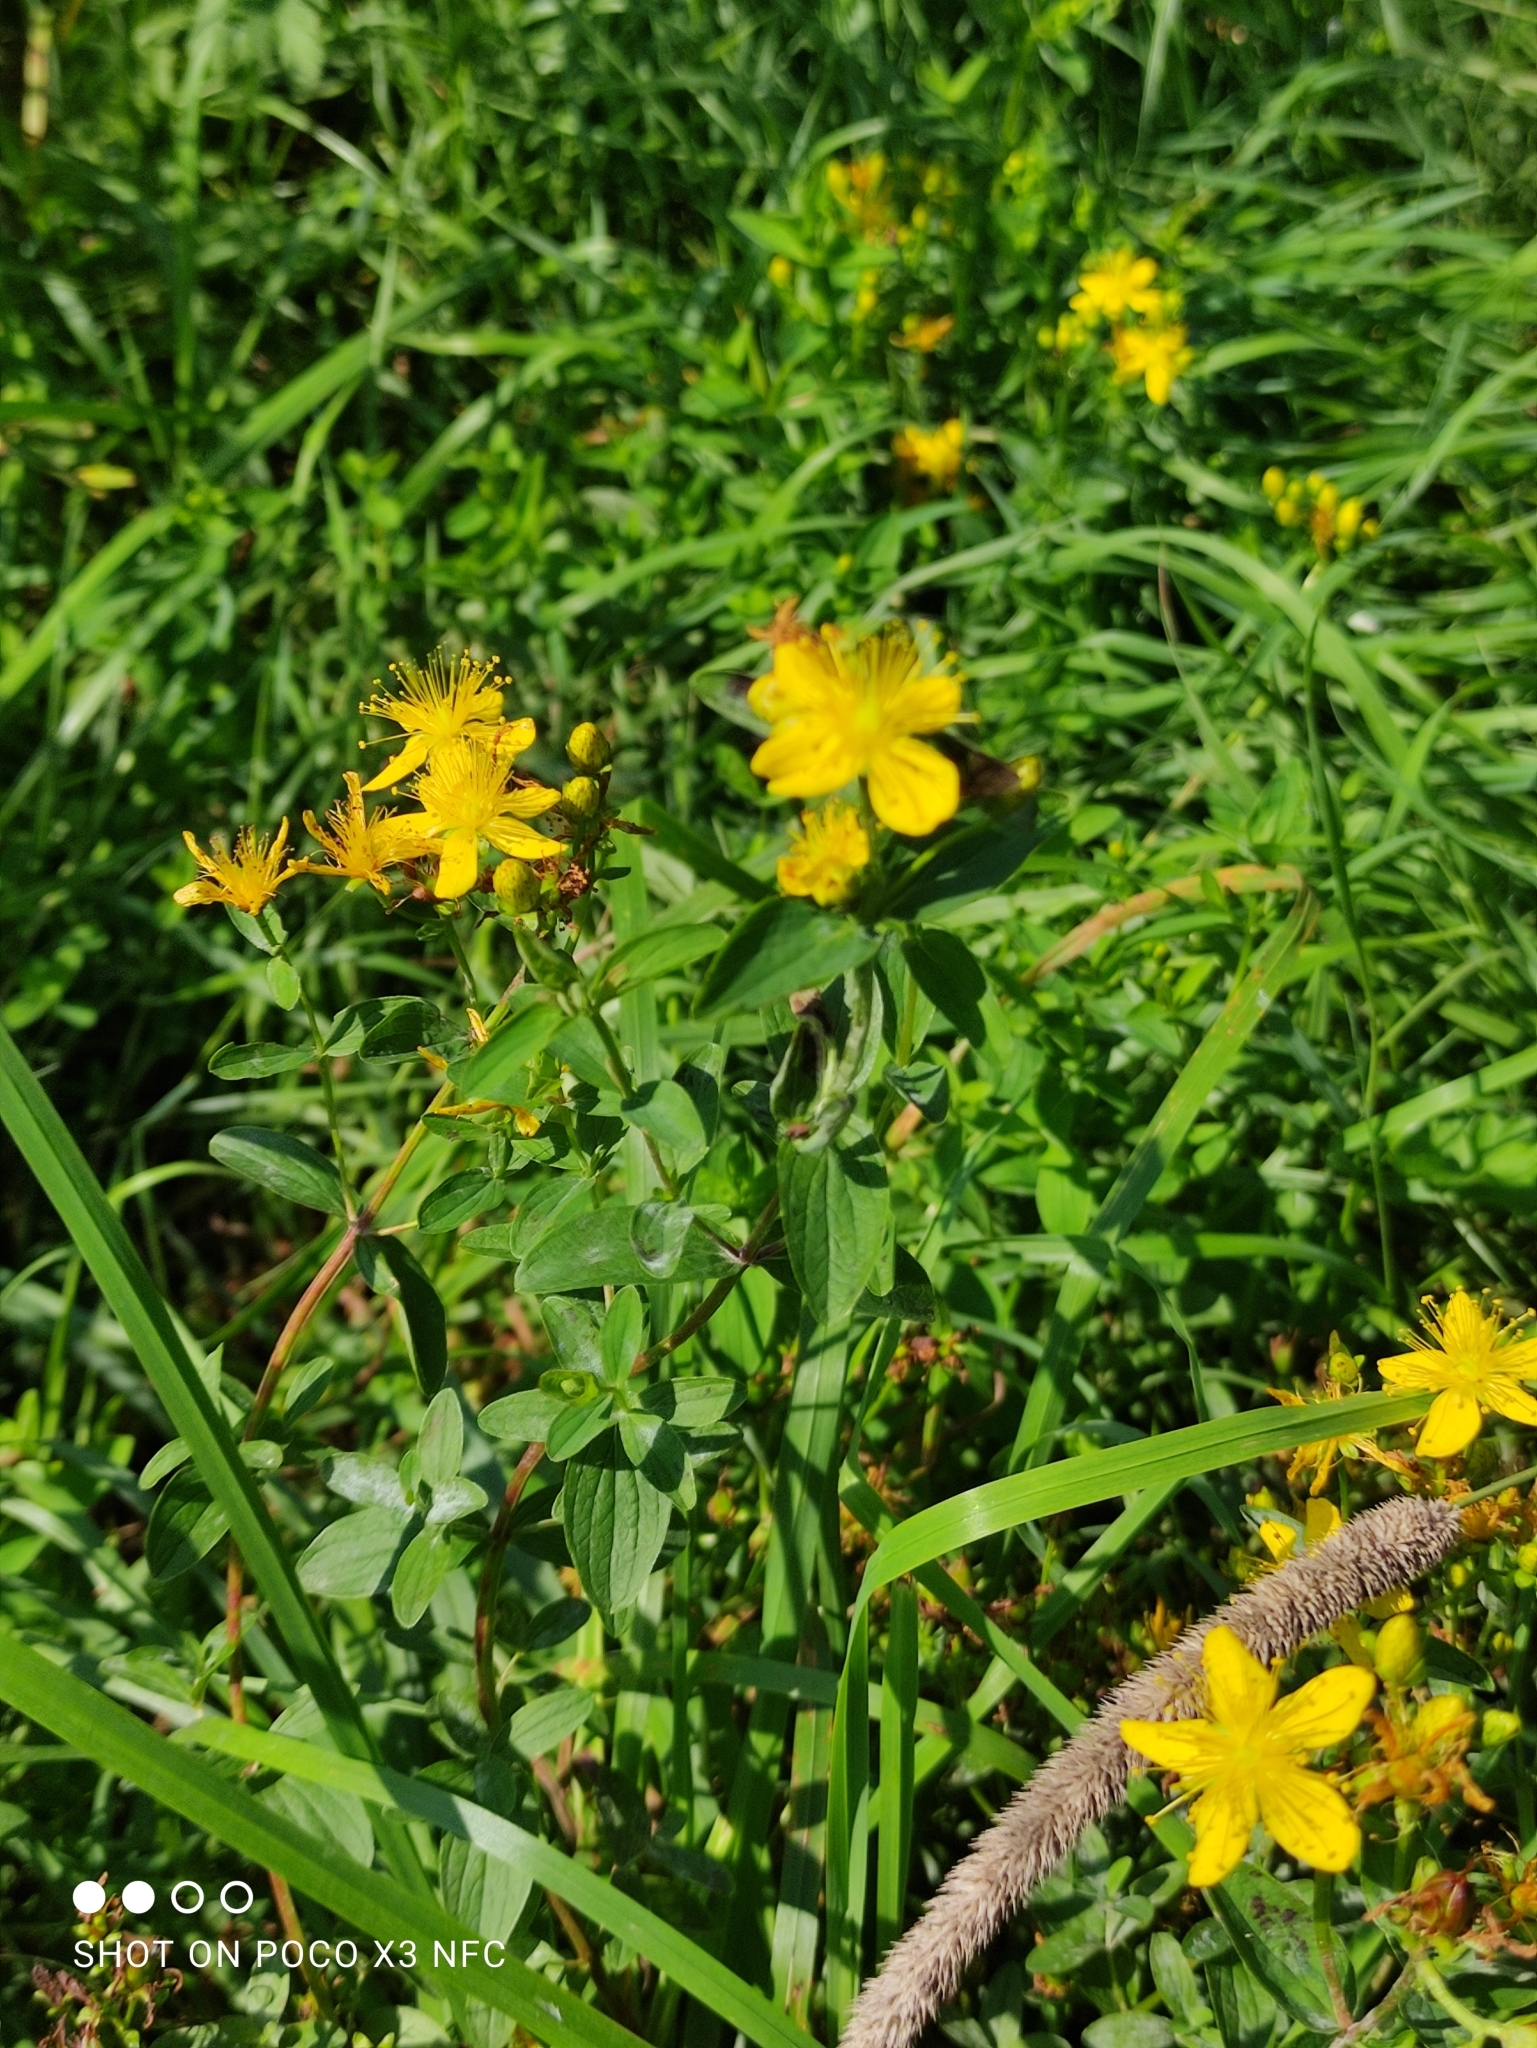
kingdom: Plantae
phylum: Tracheophyta
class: Magnoliopsida
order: Malpighiales
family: Hypericaceae
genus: Hypericum
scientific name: Hypericum maculatum
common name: Imperforate st. john's-wort
